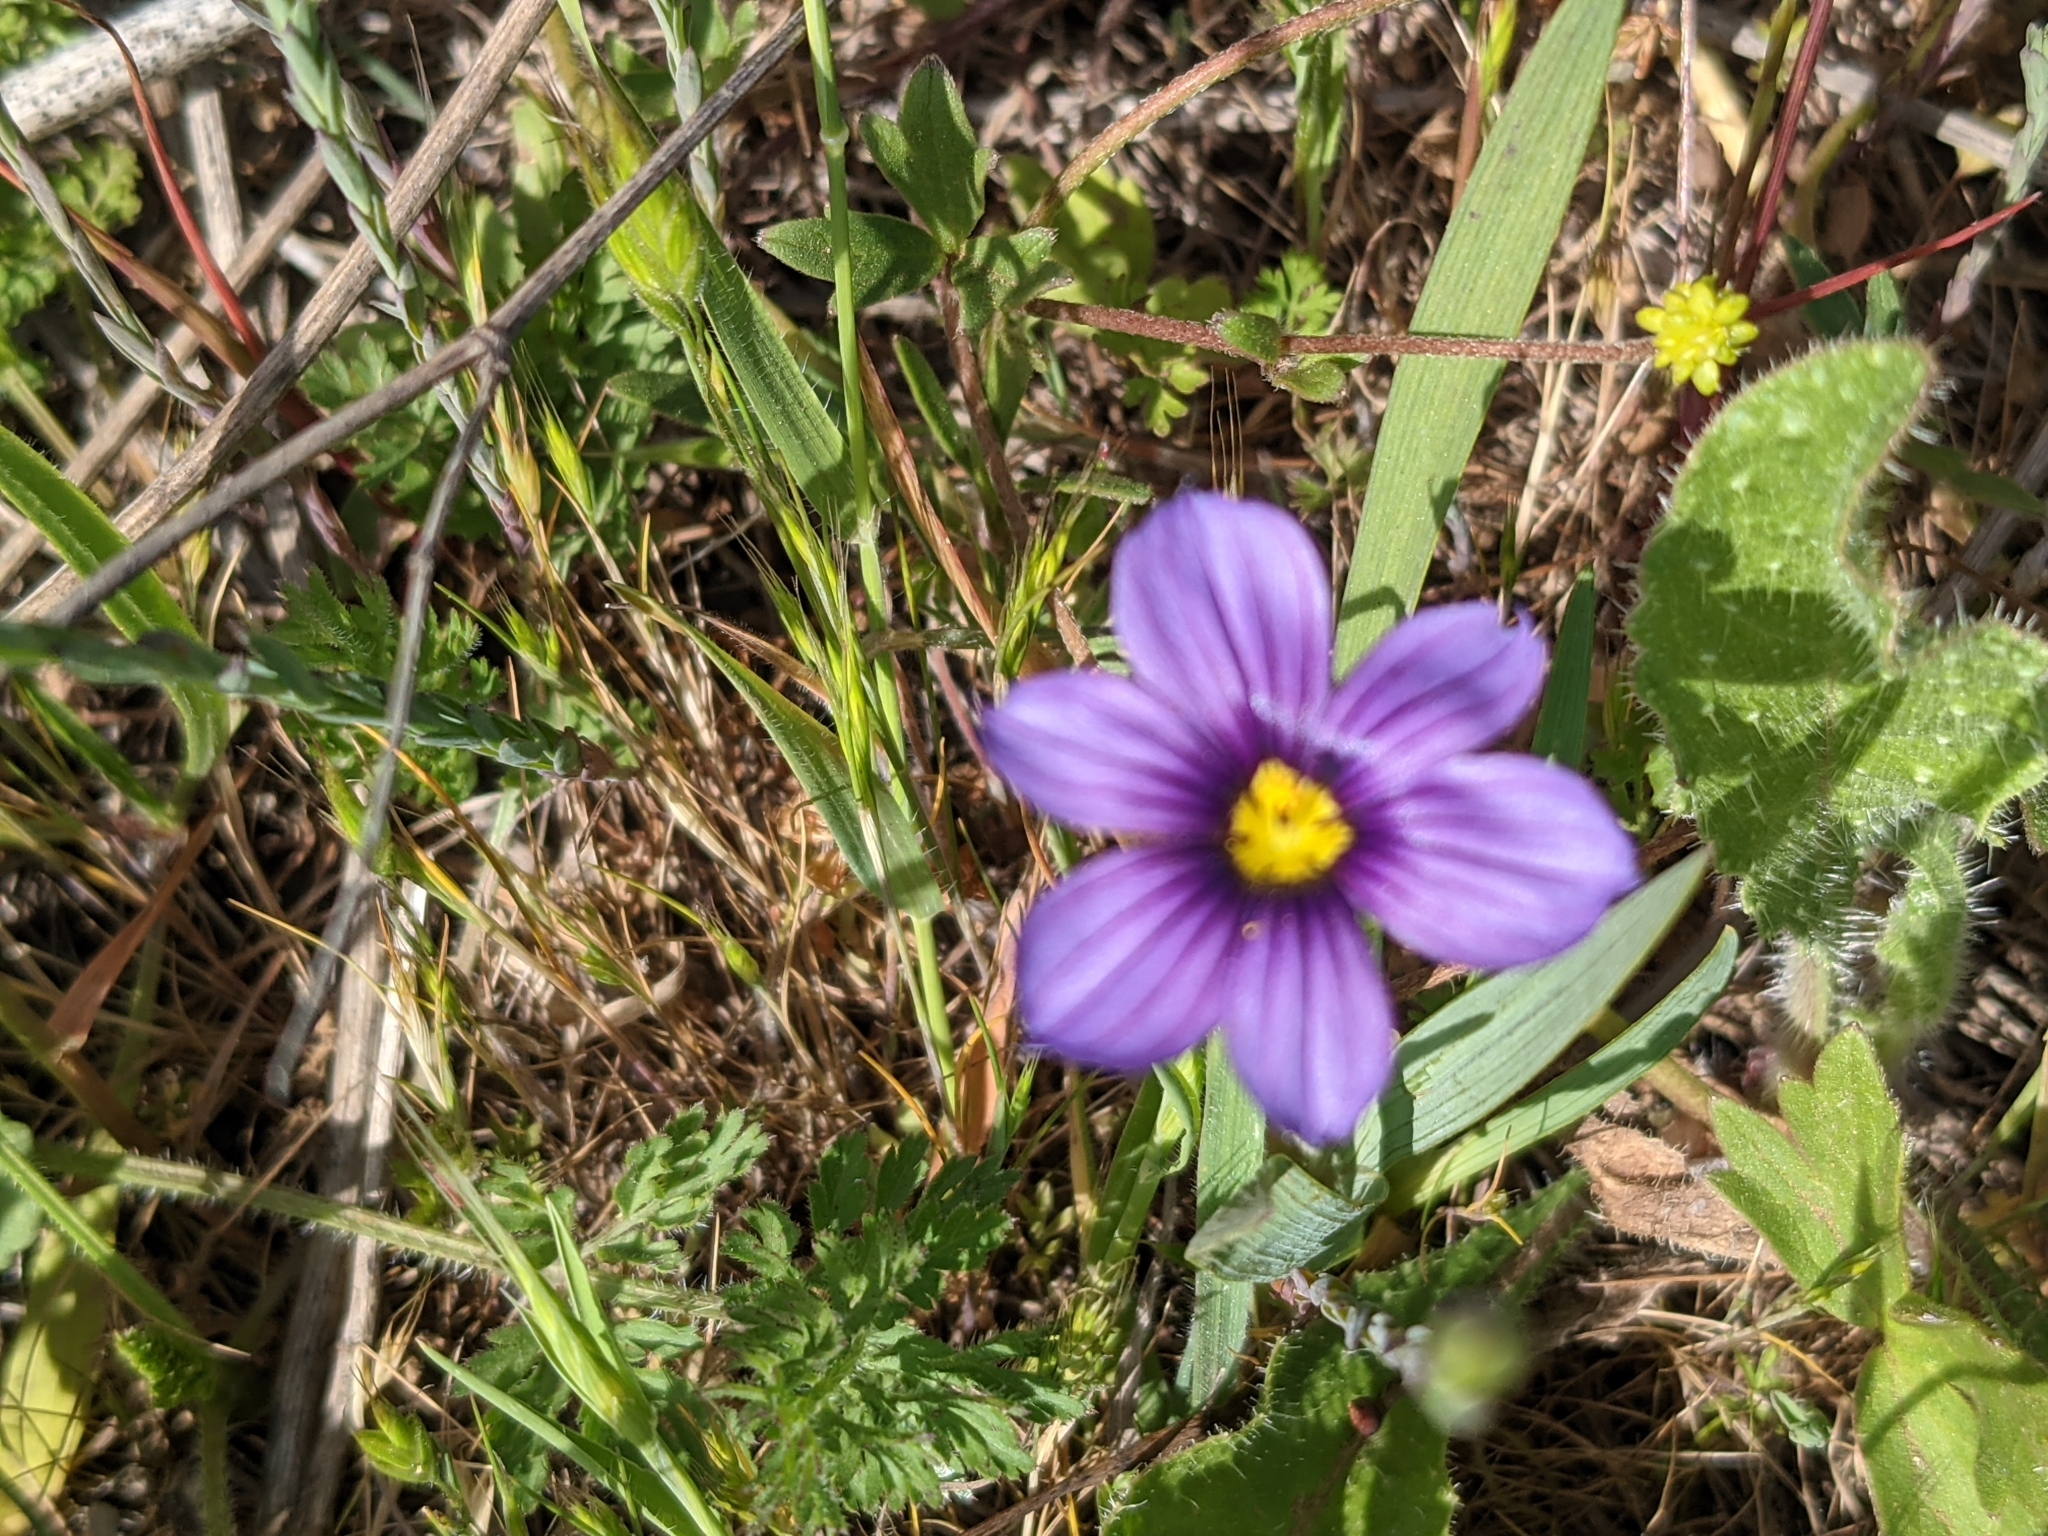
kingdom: Plantae
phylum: Tracheophyta
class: Liliopsida
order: Asparagales
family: Iridaceae
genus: Sisyrinchium
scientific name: Sisyrinchium bellum
